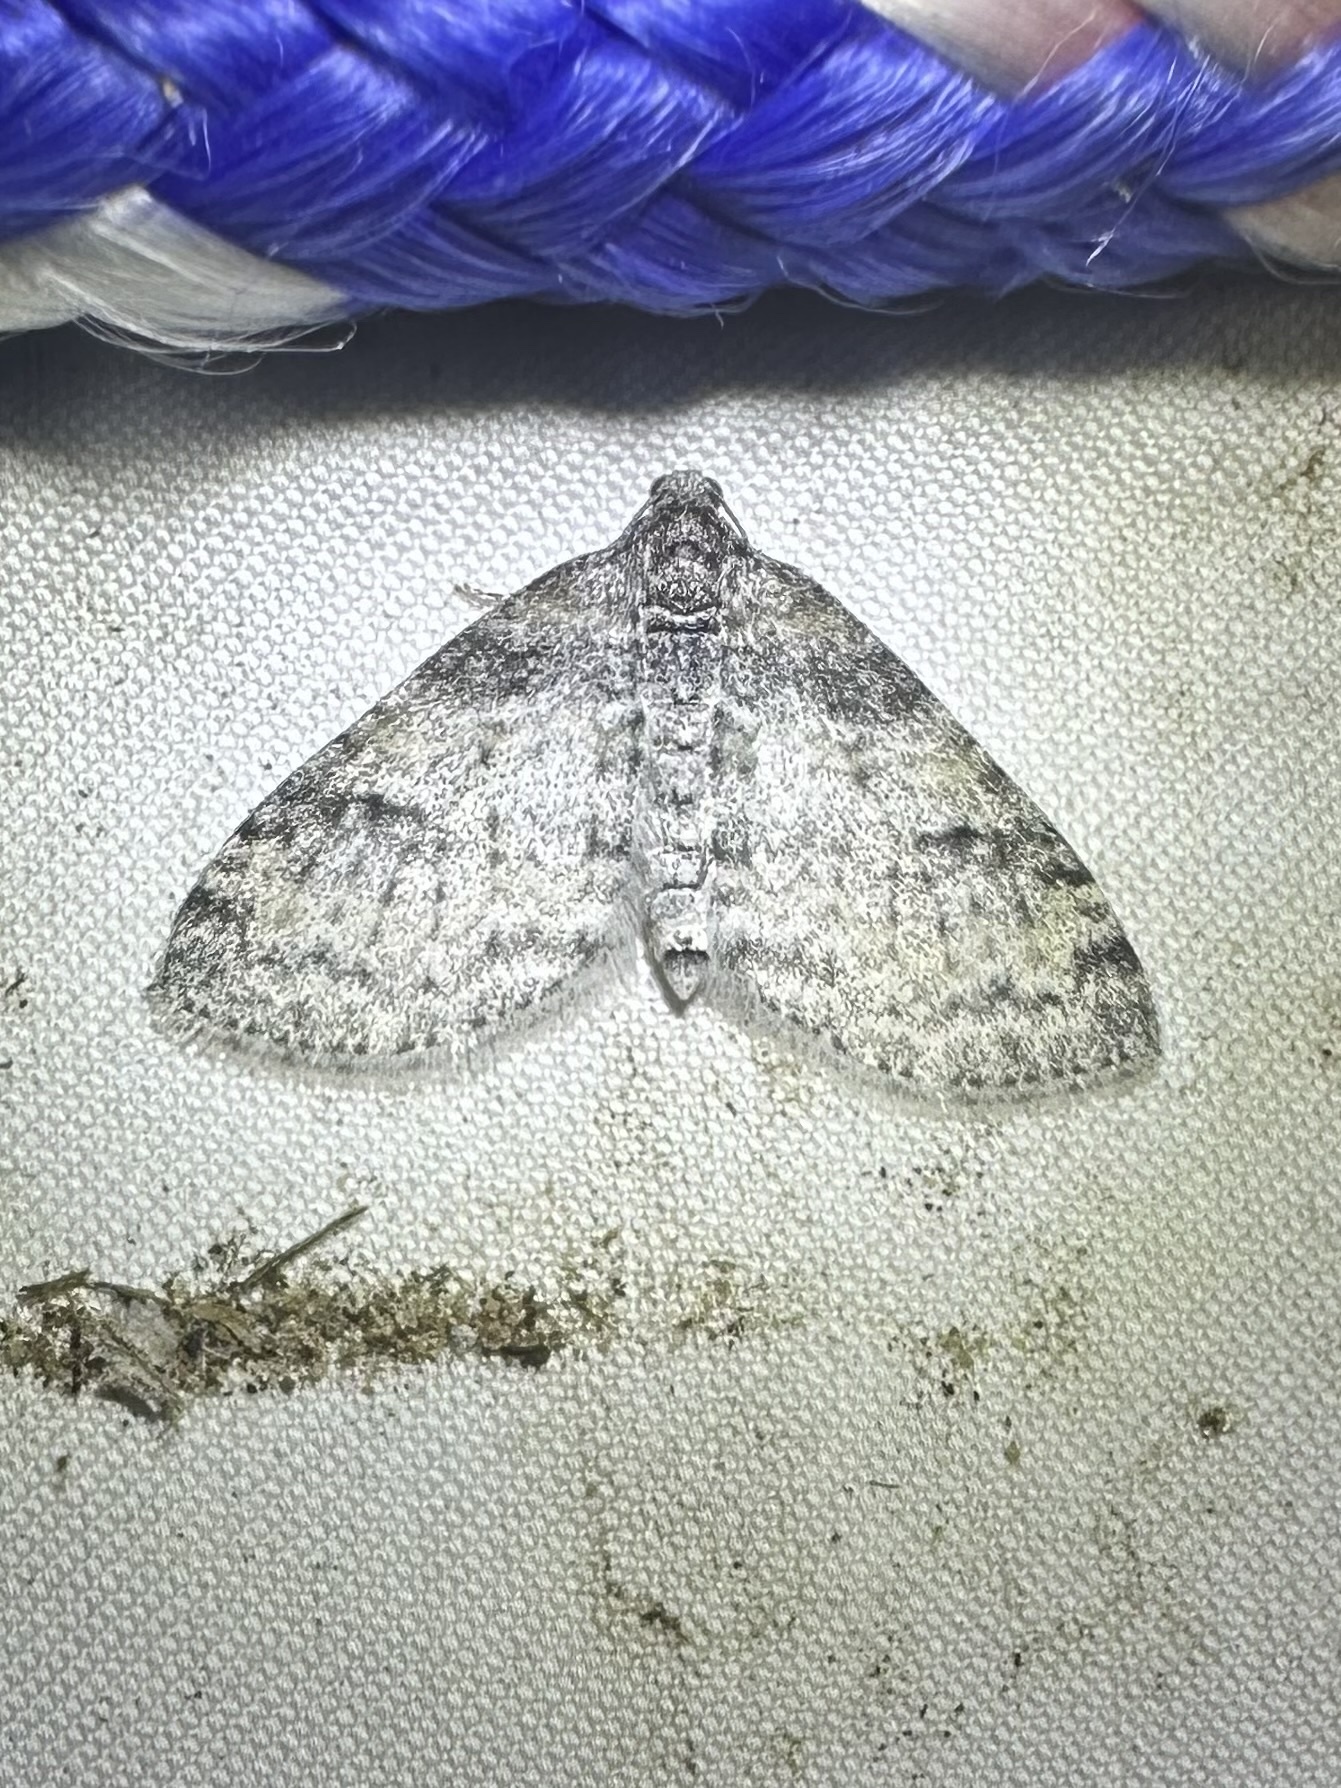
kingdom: Animalia
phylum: Arthropoda
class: Insecta
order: Lepidoptera
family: Geometridae
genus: Lobophora
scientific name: Lobophora nivigerata
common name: Powdered bigwing
